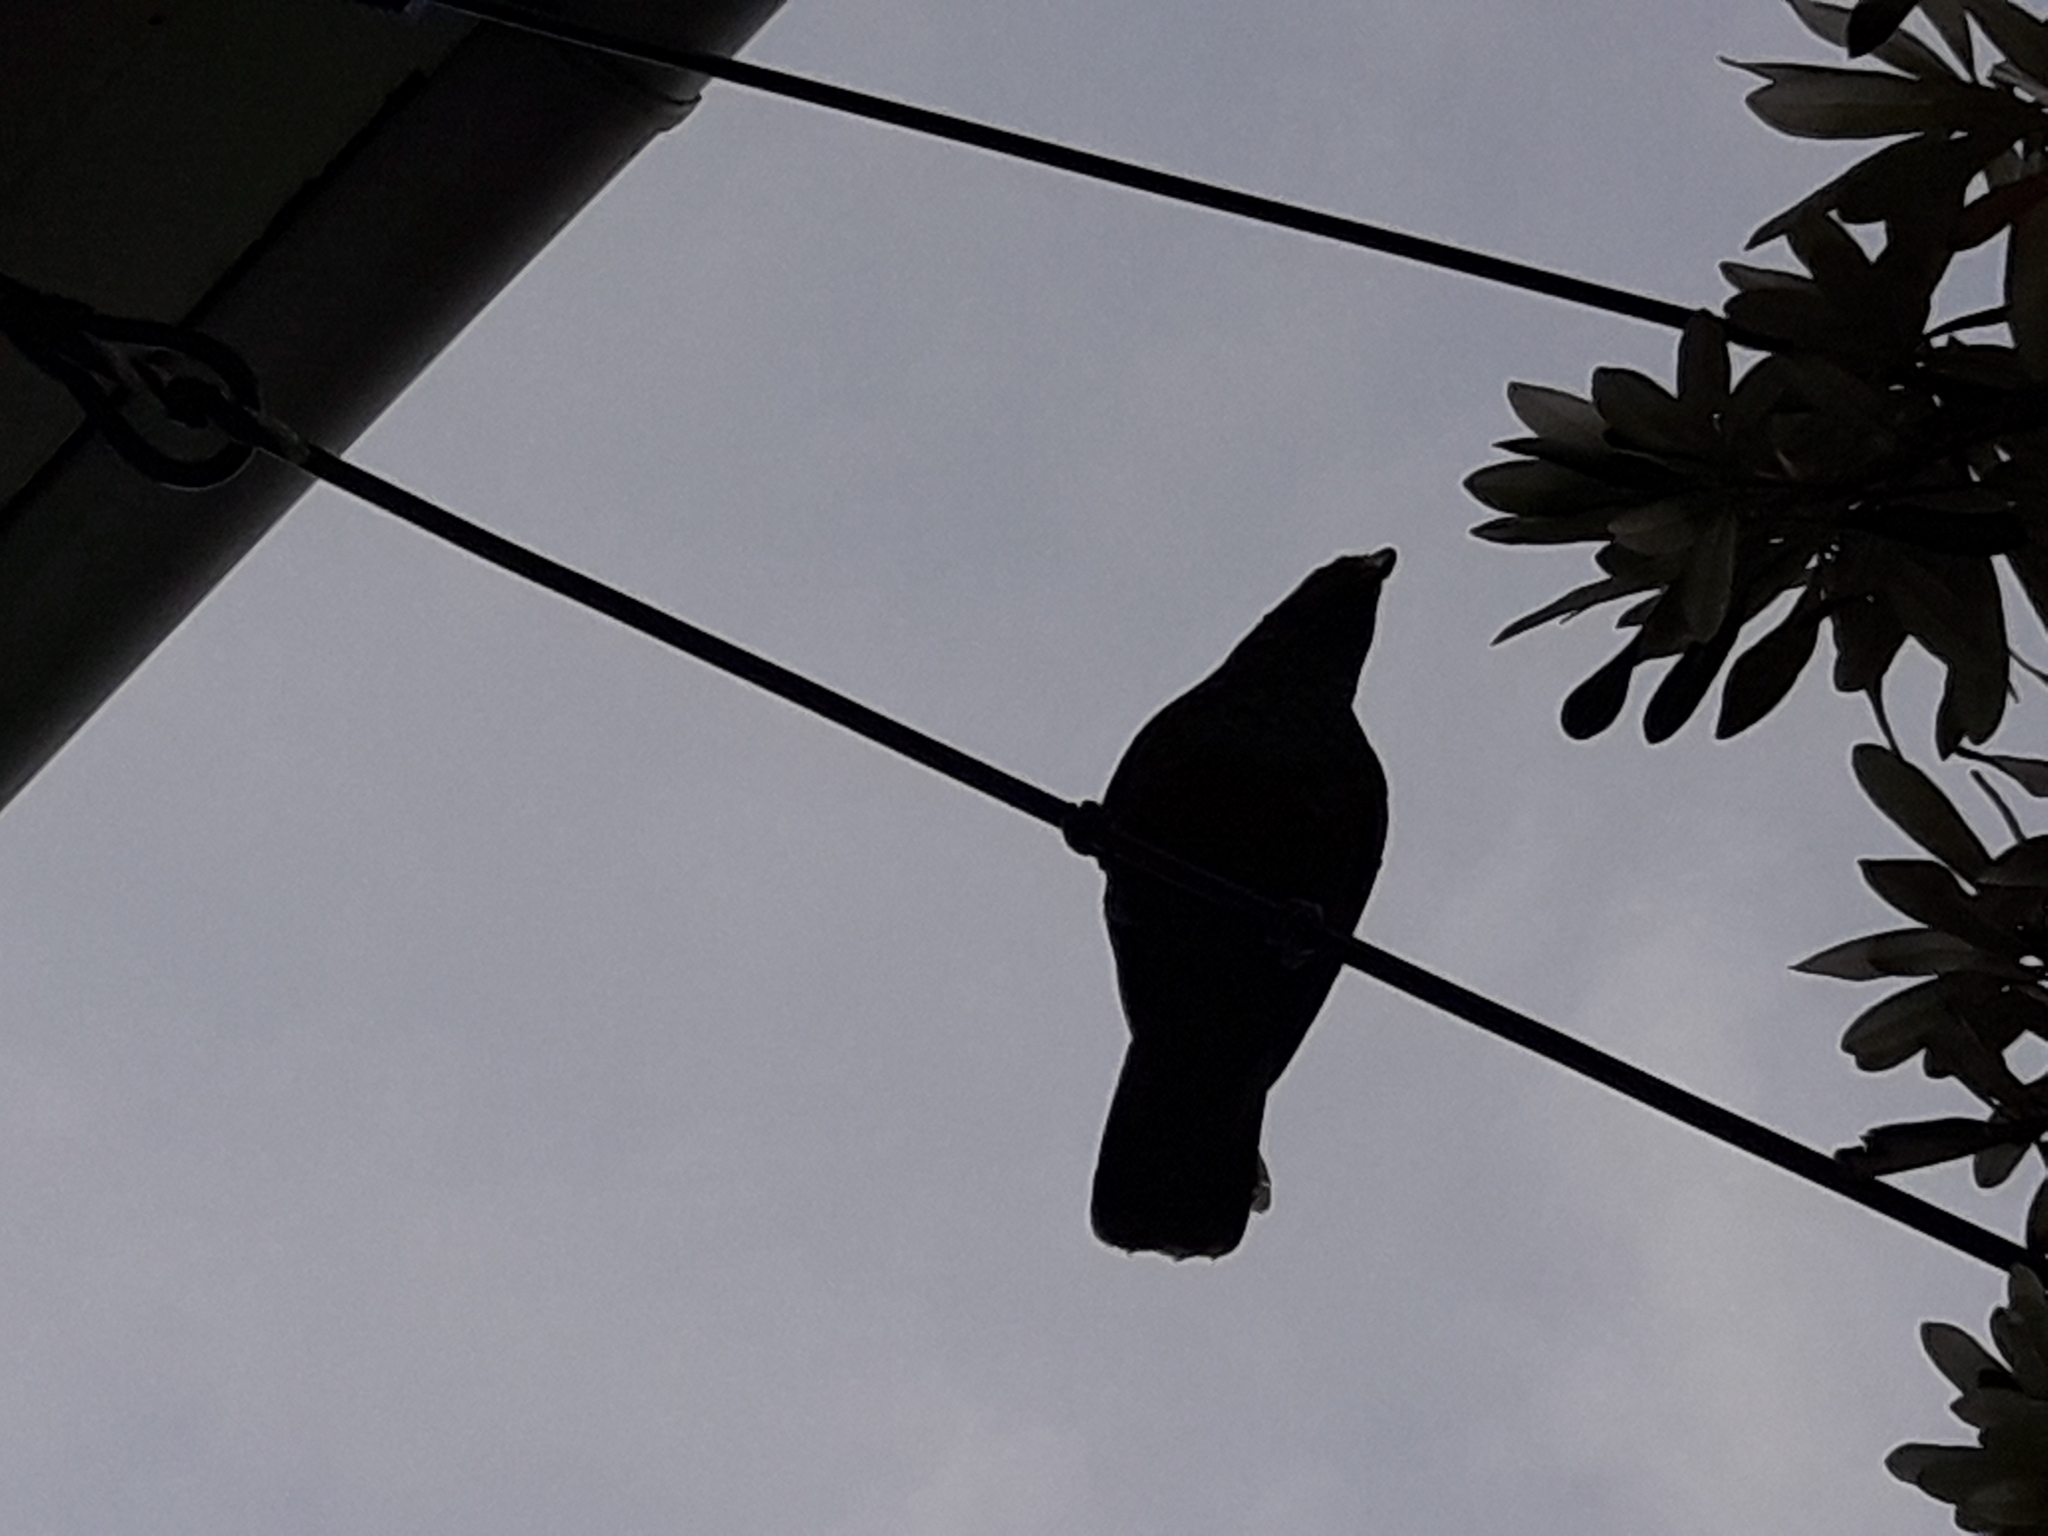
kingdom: Animalia
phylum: Chordata
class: Aves
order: Psittaciformes
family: Psittacidae
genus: Nestor
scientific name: Nestor meridionalis
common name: New zealand kaka
